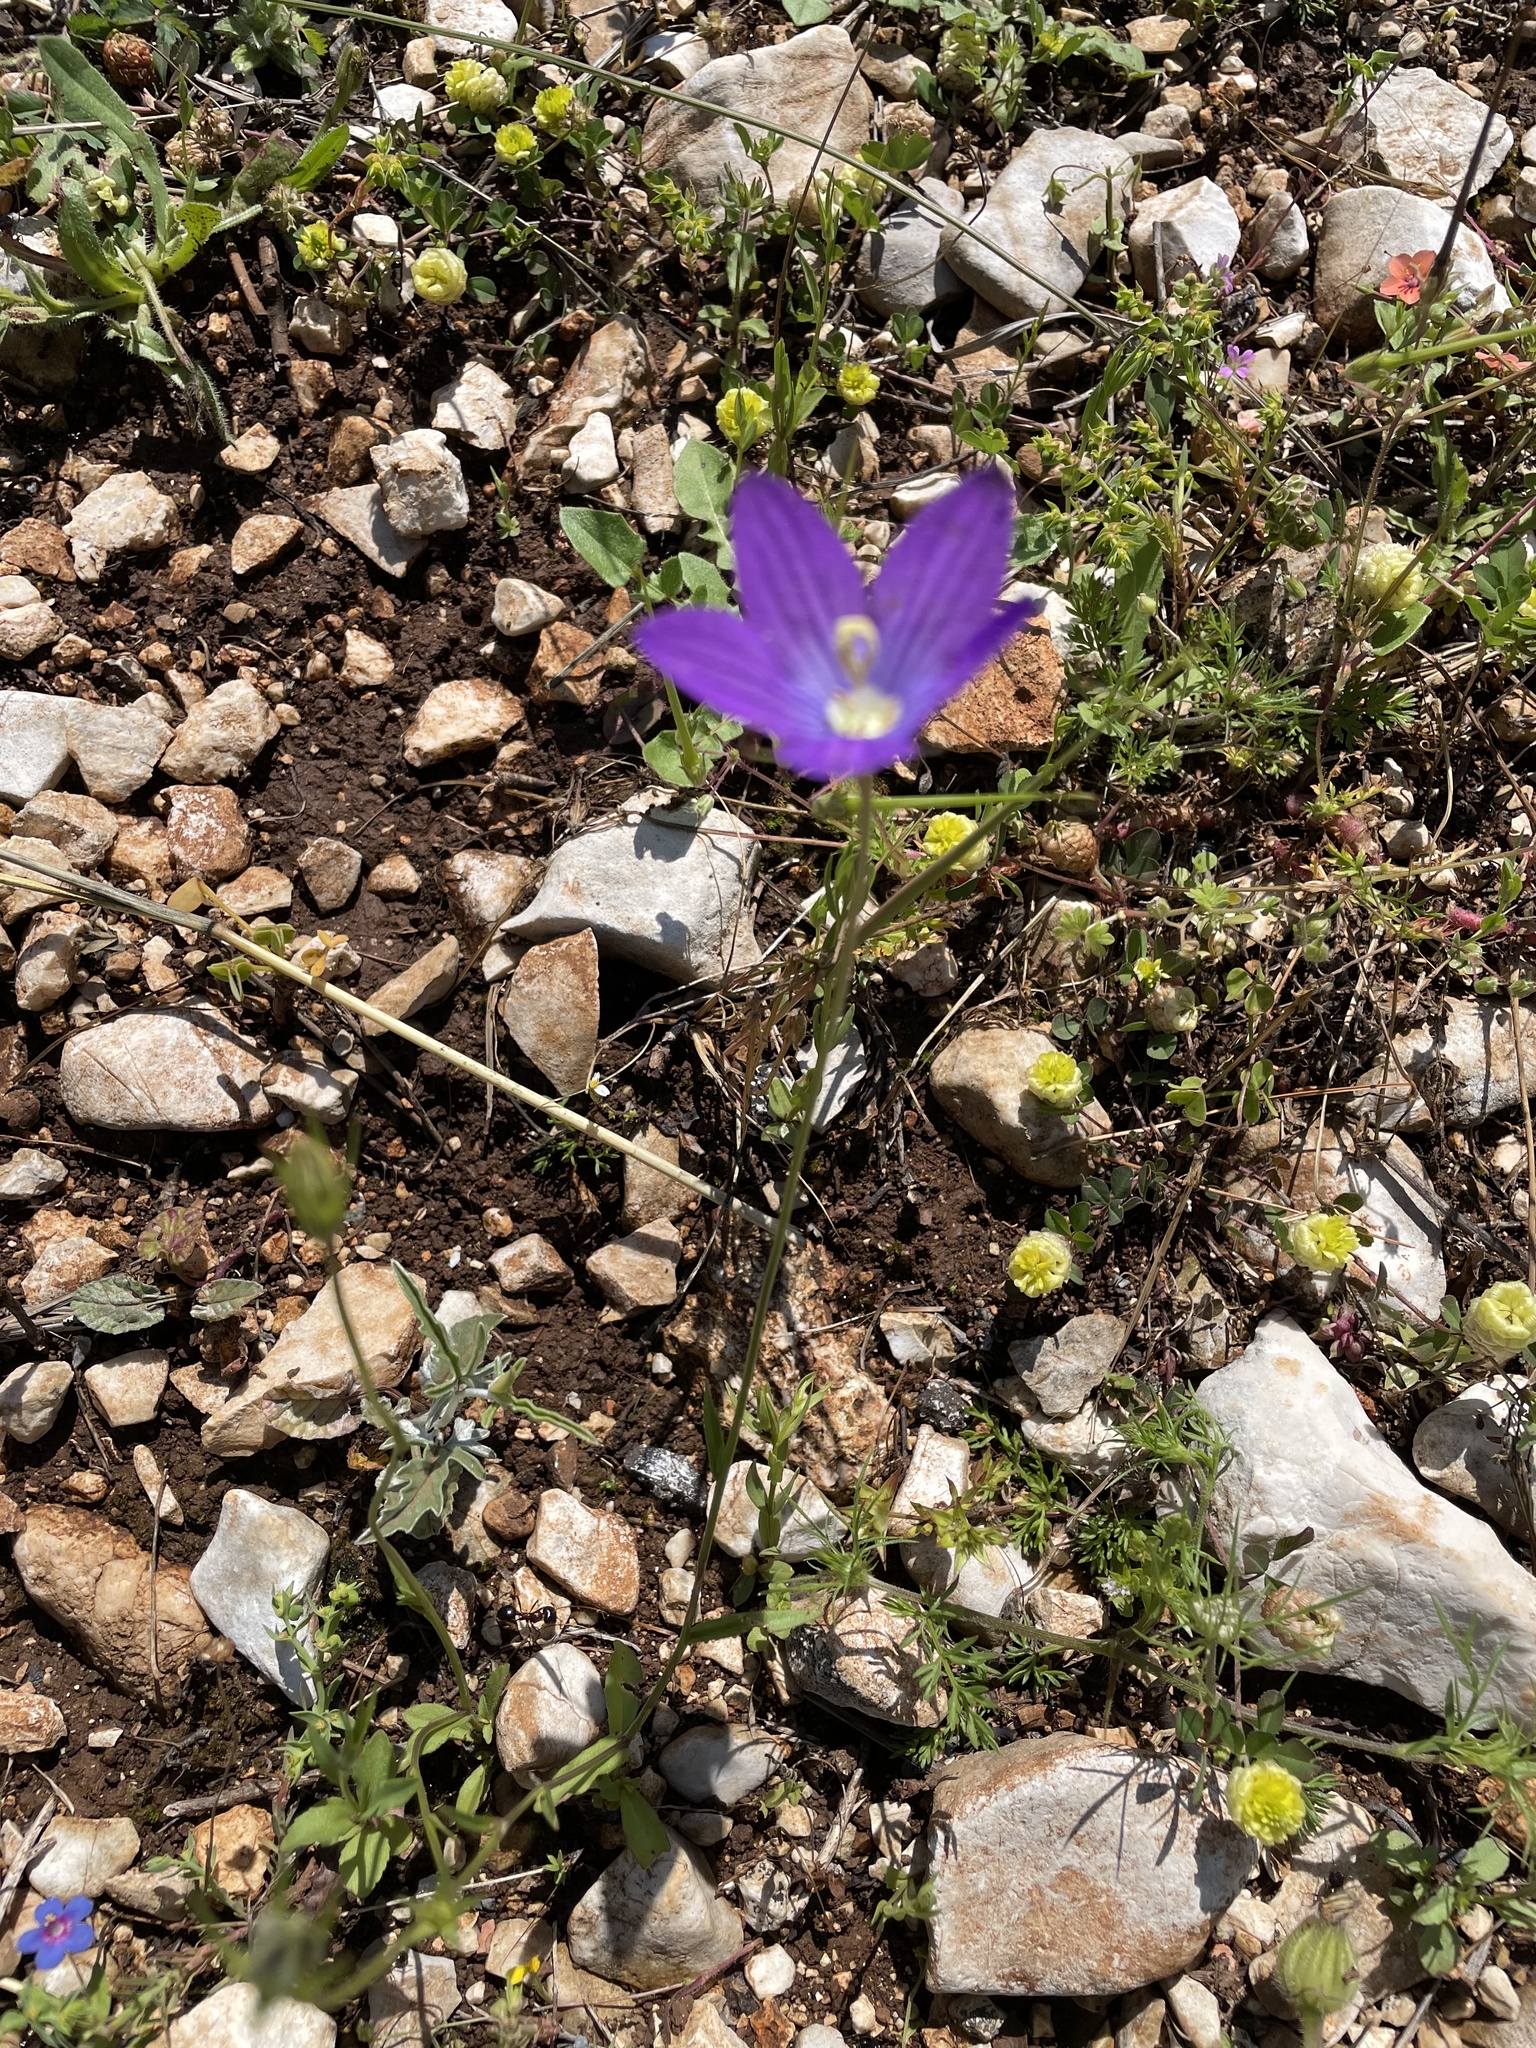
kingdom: Plantae
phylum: Tracheophyta
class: Magnoliopsida
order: Asterales
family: Campanulaceae
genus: Campanula
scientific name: Campanula ramosissima
